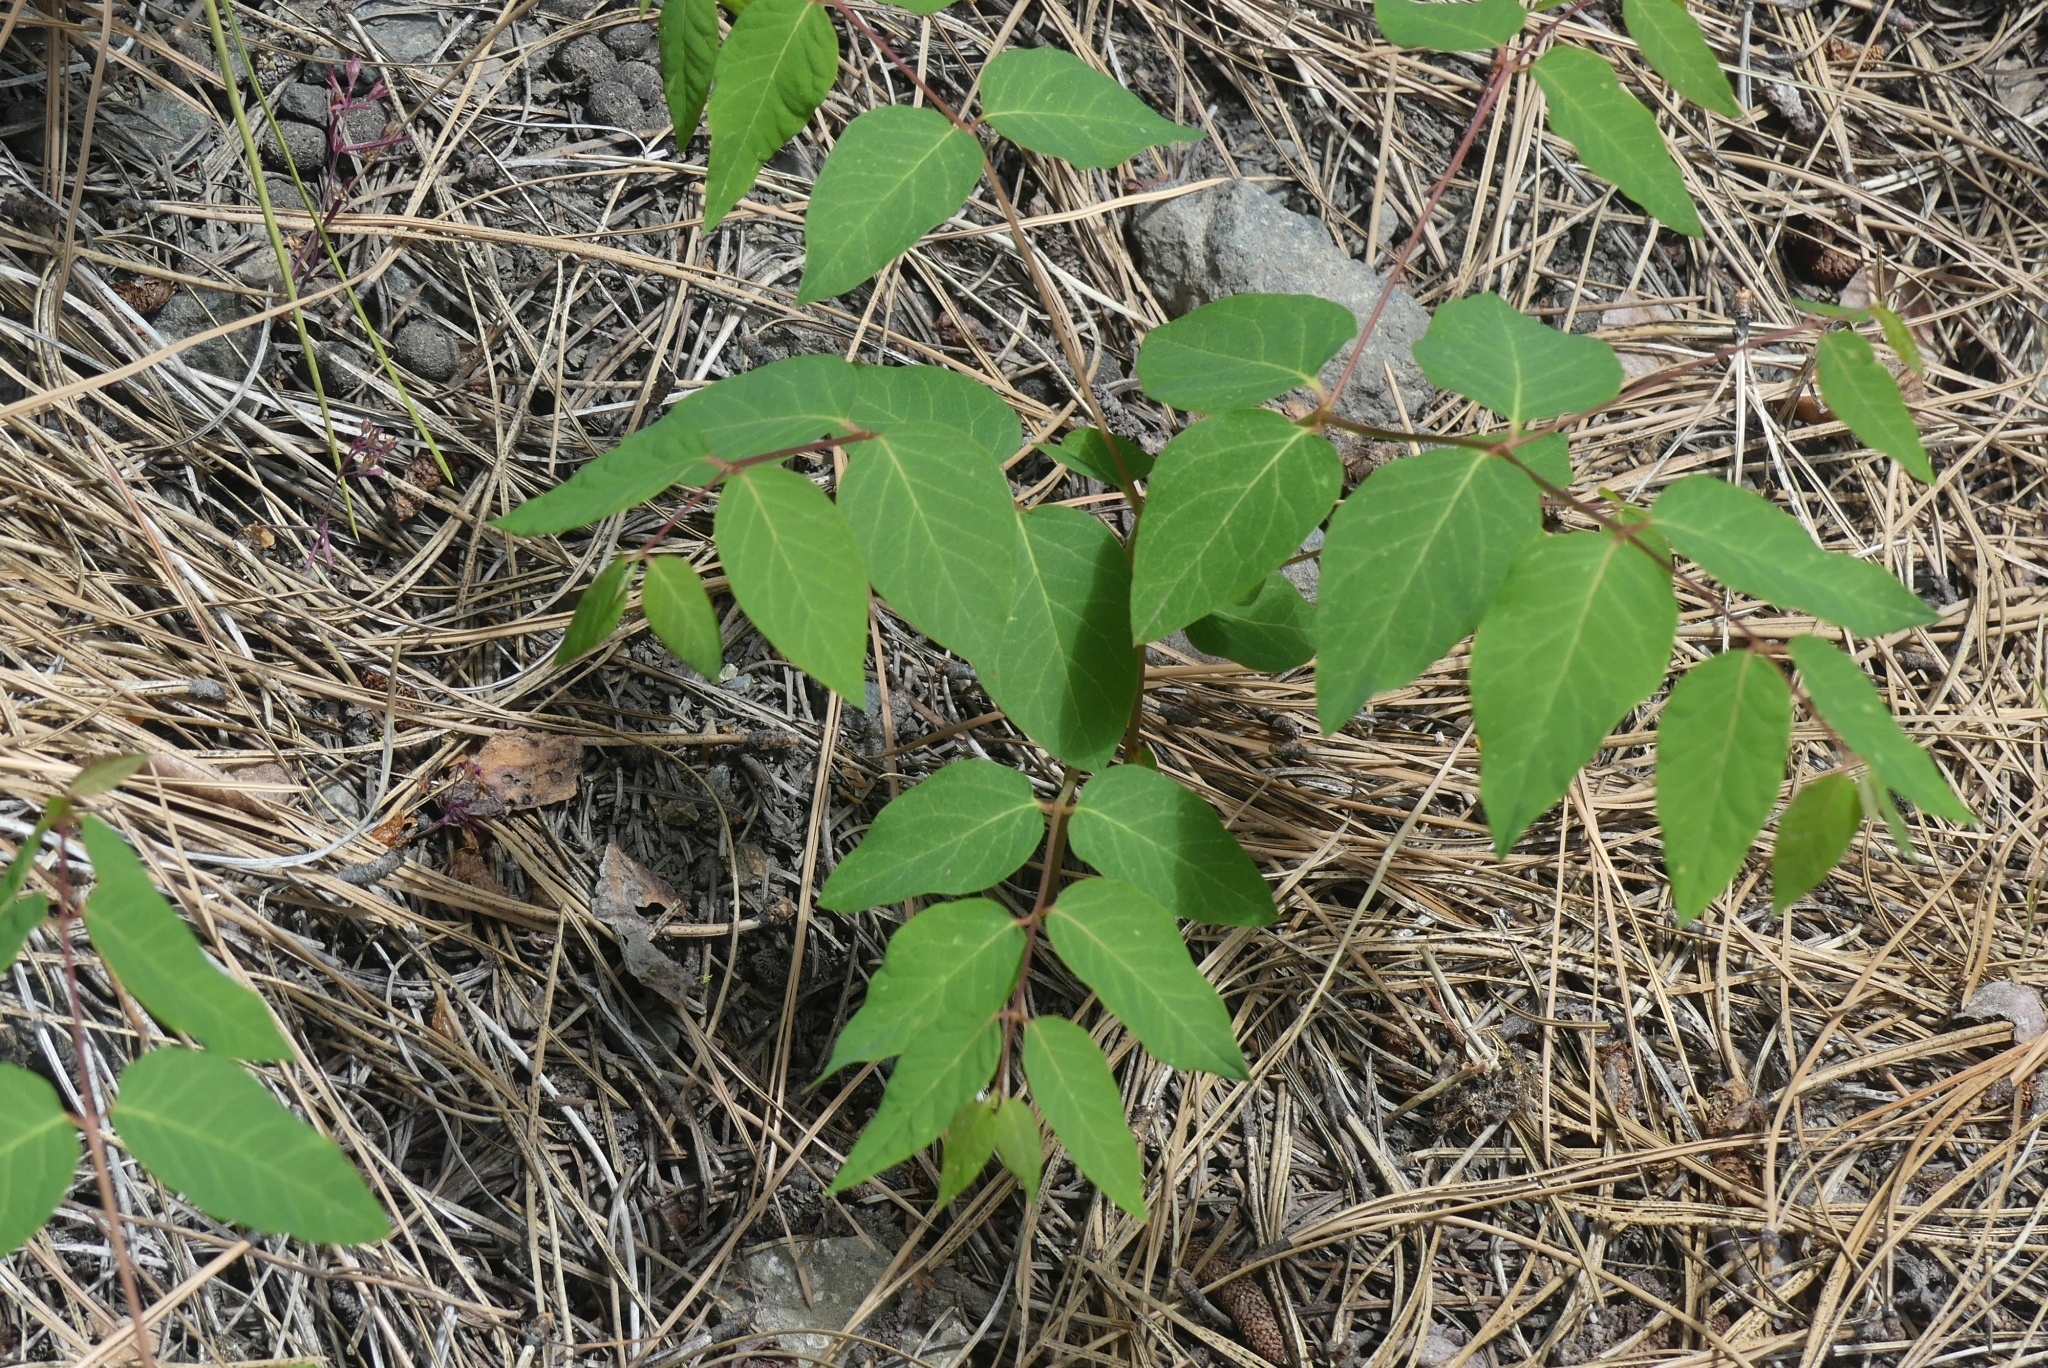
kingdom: Plantae
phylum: Tracheophyta
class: Magnoliopsida
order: Gentianales
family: Apocynaceae
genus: Apocynum
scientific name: Apocynum androsaemifolium
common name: Spreading dogbane
